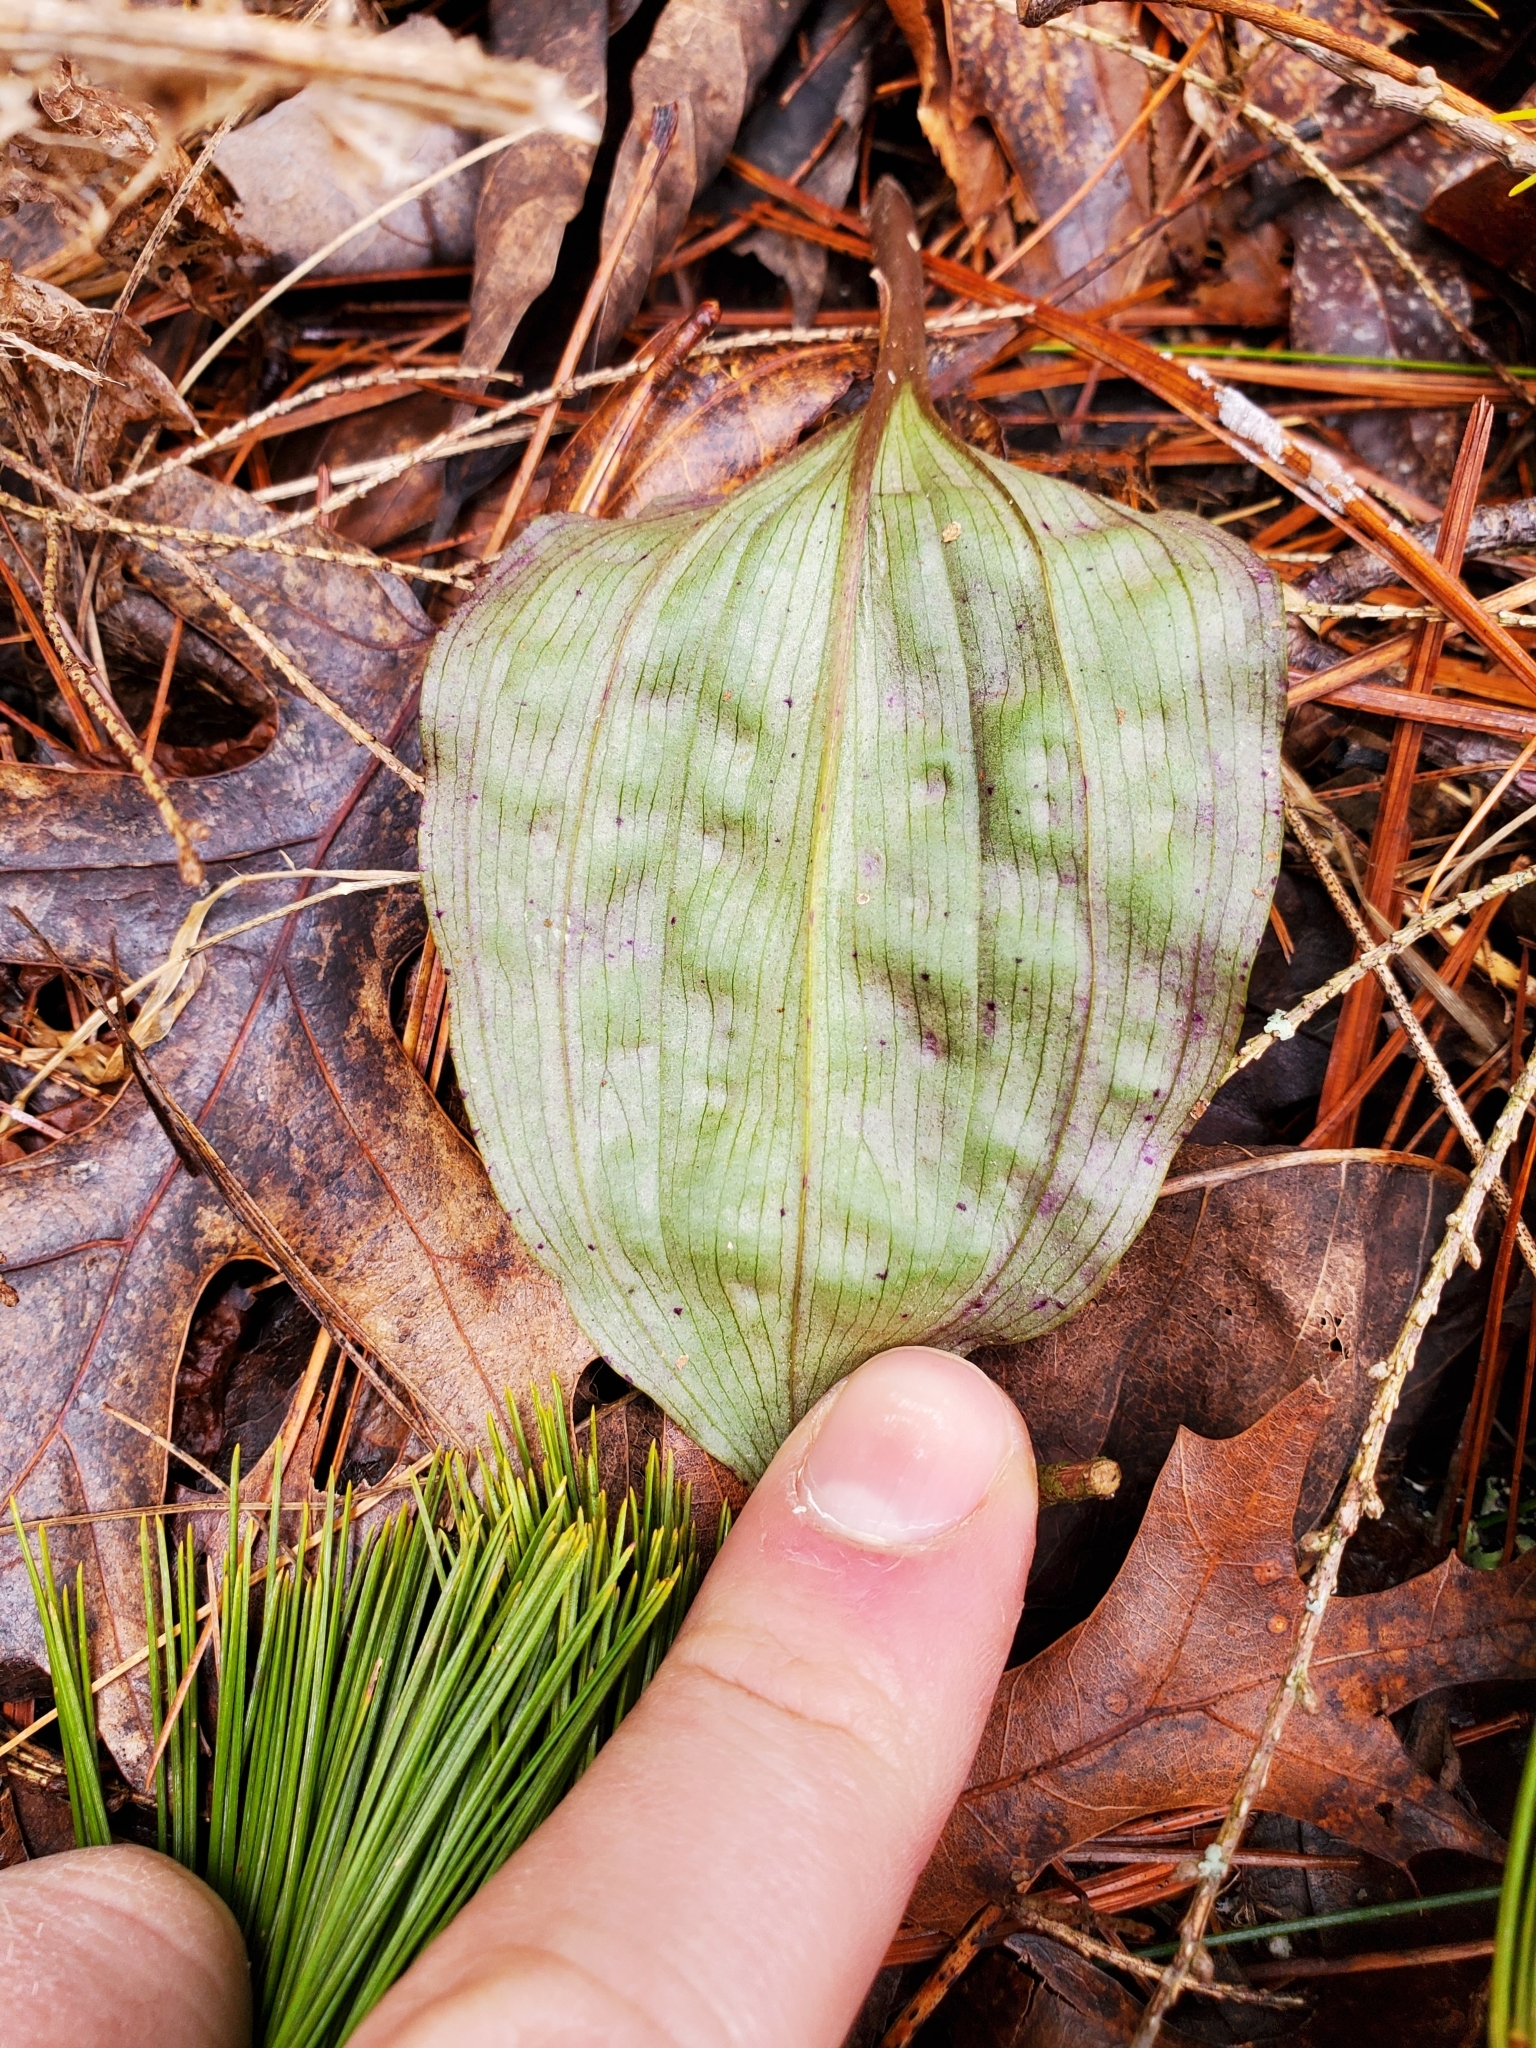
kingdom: Plantae
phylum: Tracheophyta
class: Liliopsida
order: Asparagales
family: Orchidaceae
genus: Tipularia
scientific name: Tipularia discolor
